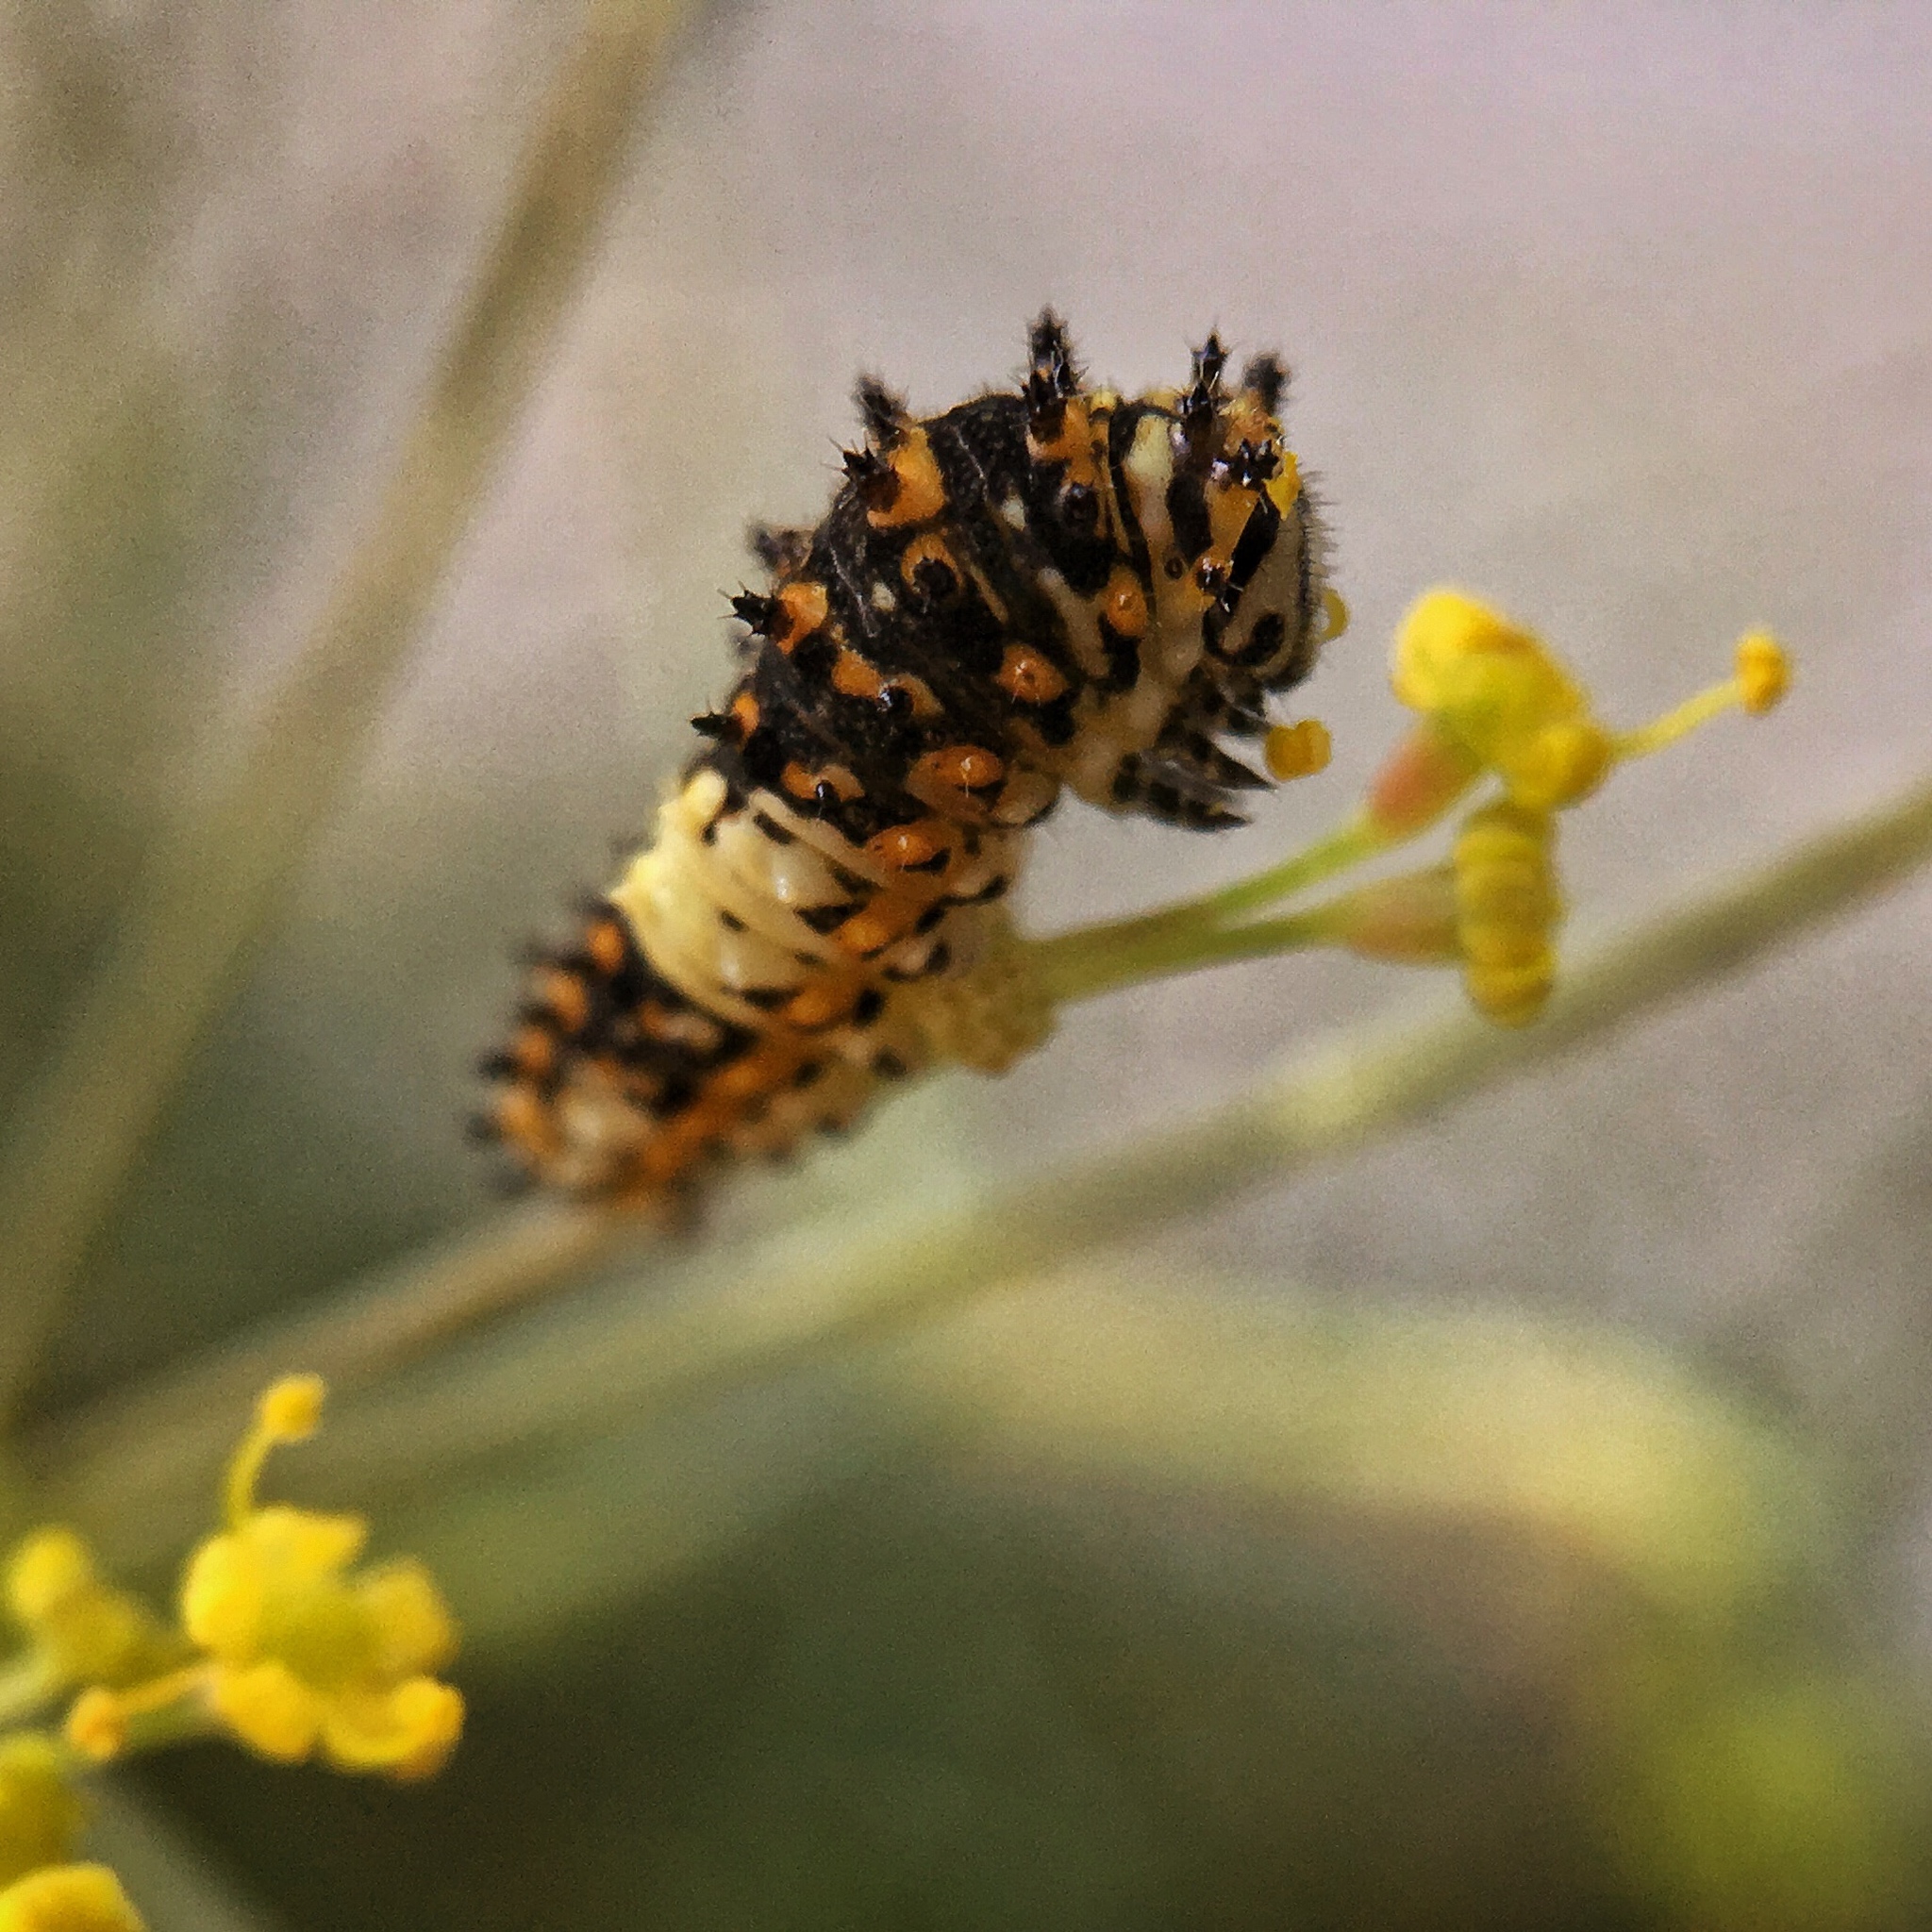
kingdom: Animalia
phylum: Arthropoda
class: Insecta
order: Lepidoptera
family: Papilionidae
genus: Papilio
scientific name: Papilio polyxenes
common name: Black swallowtail
